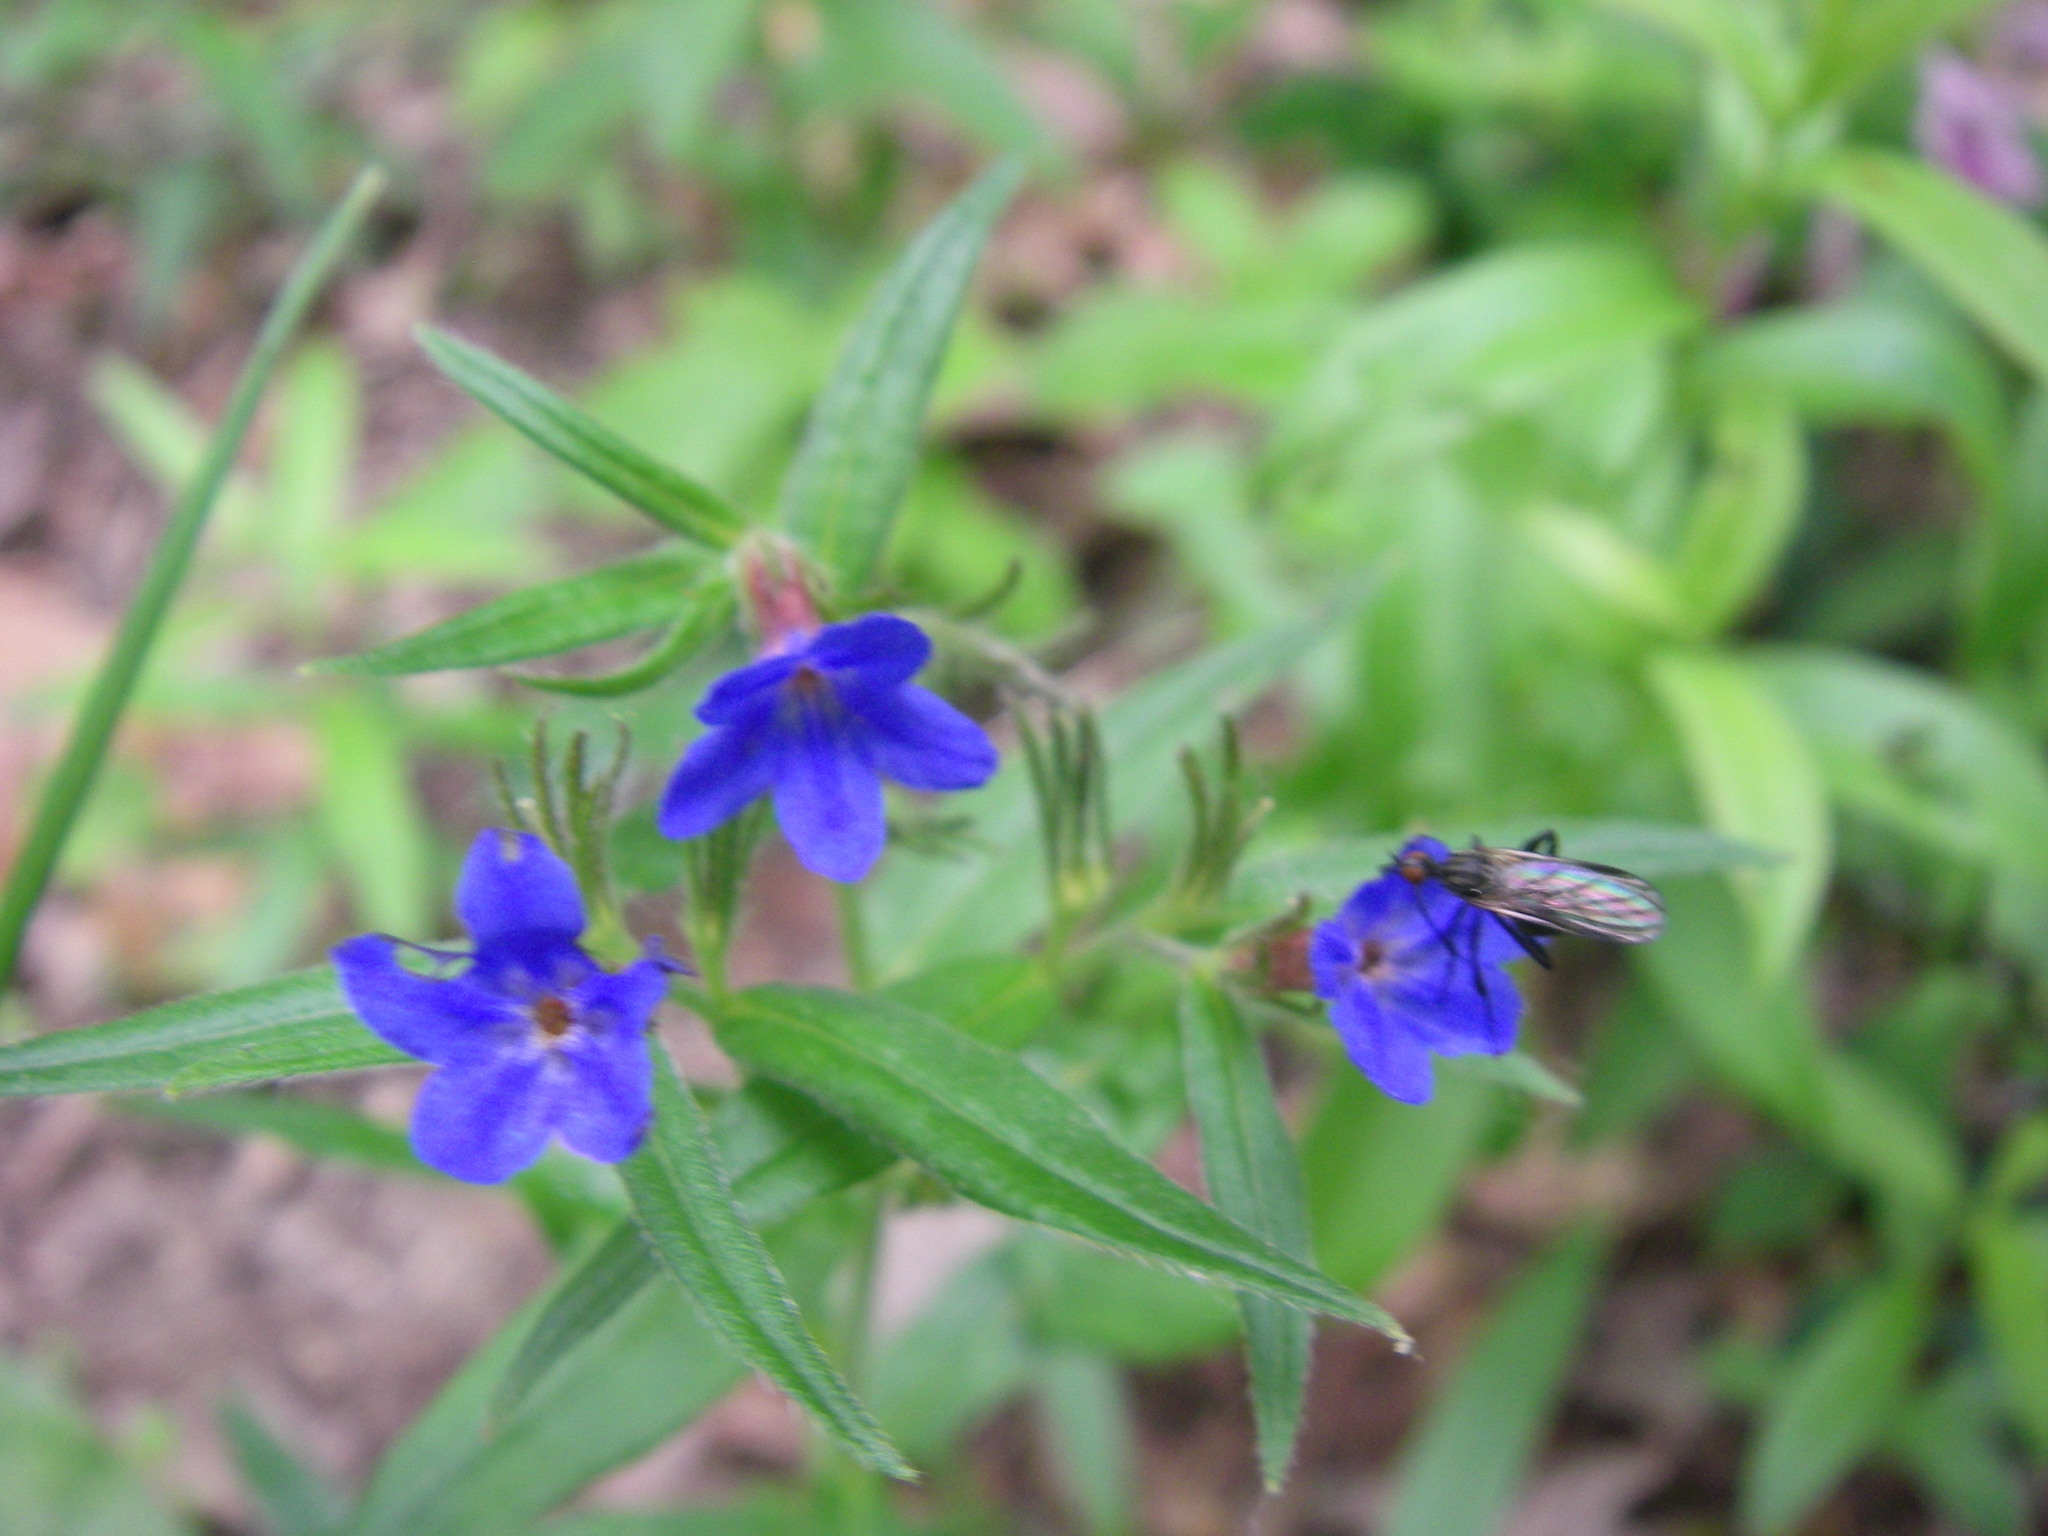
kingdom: Plantae
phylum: Tracheophyta
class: Magnoliopsida
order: Boraginales
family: Boraginaceae
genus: Aegonychon
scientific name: Aegonychon purpurocaeruleum
